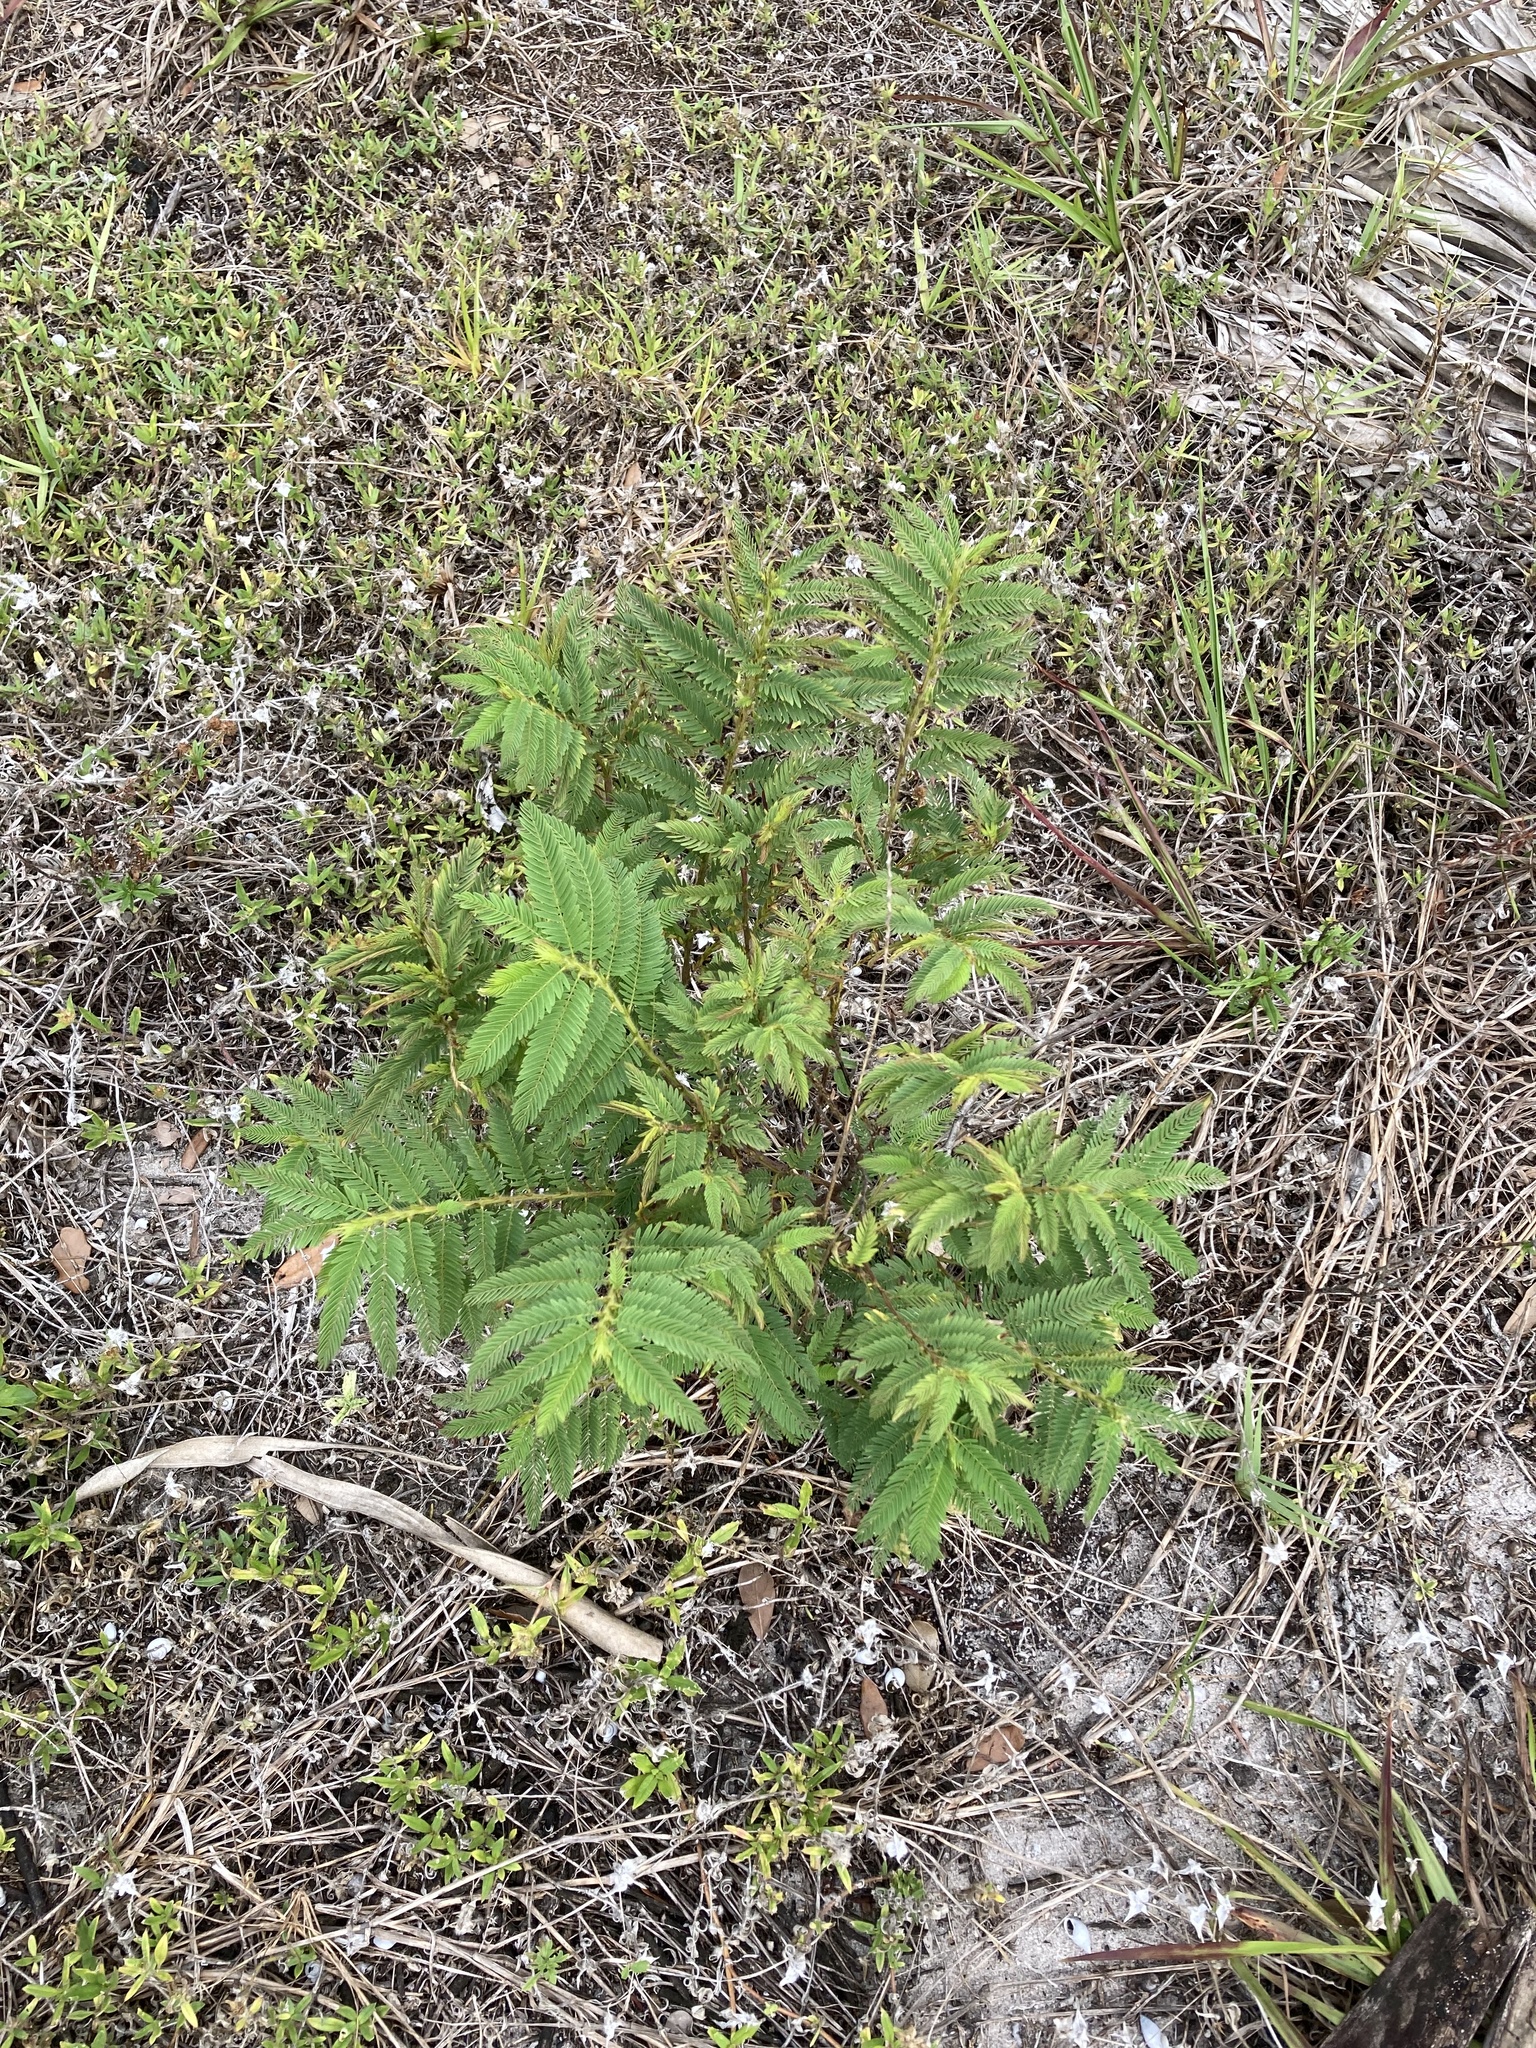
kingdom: Plantae
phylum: Tracheophyta
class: Magnoliopsida
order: Fabales
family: Fabaceae
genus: Chamaecrista
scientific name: Chamaecrista nictitans
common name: Sensitive cassia
